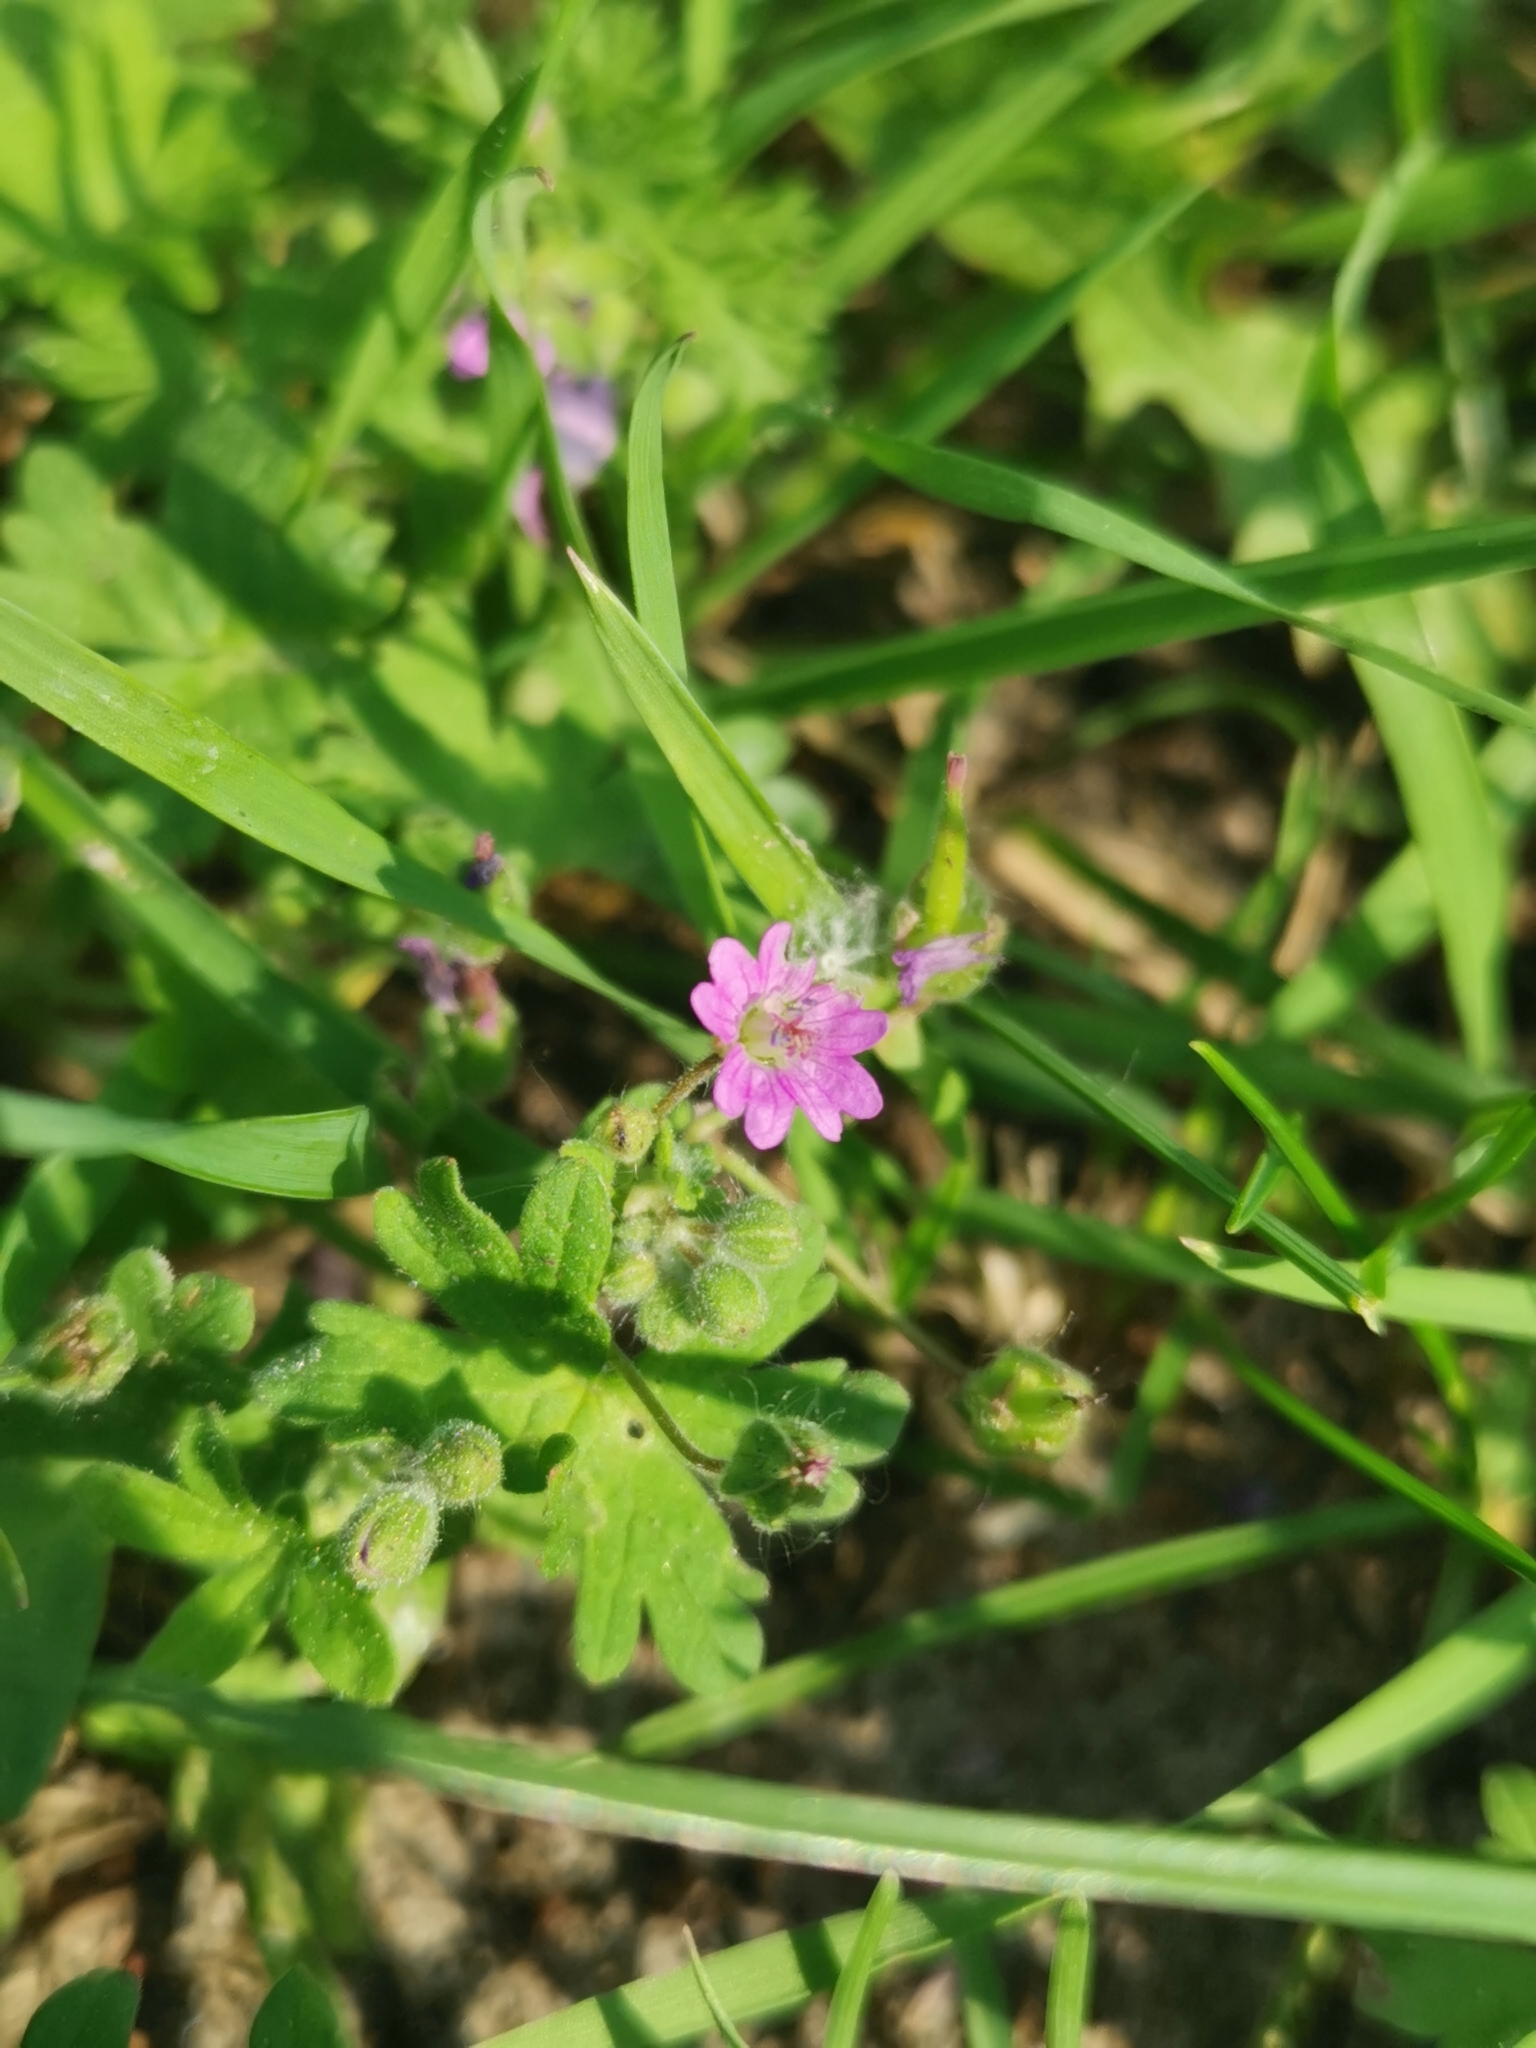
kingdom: Plantae
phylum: Tracheophyta
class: Magnoliopsida
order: Geraniales
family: Geraniaceae
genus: Geranium
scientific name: Geranium molle
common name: Dove's-foot crane's-bill
